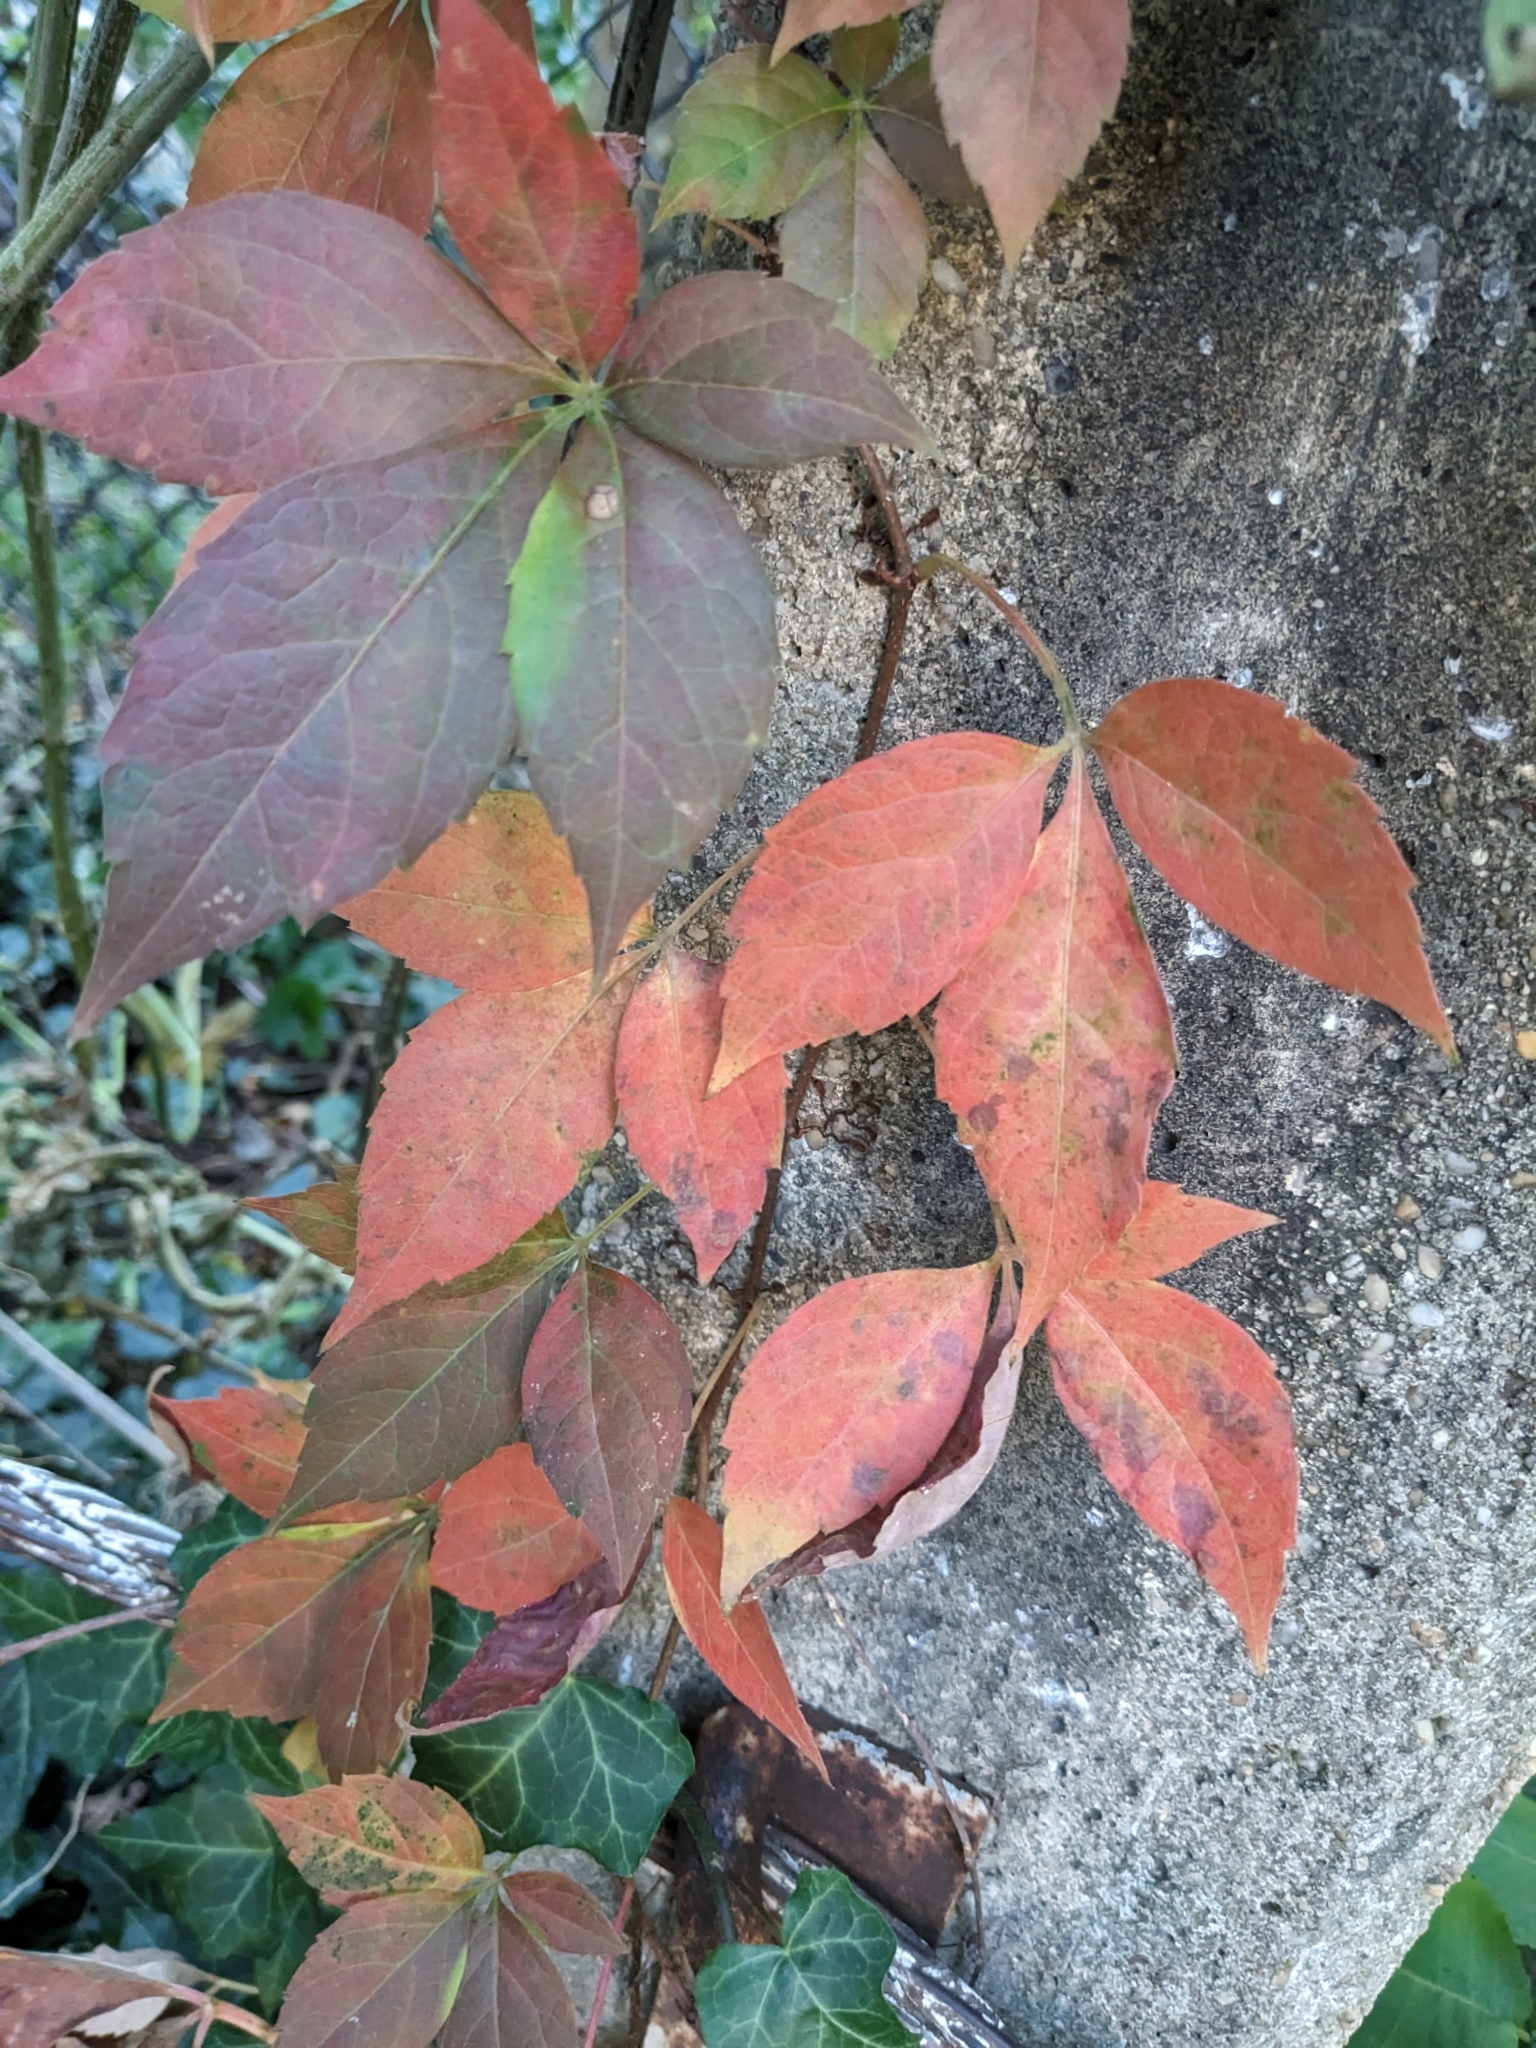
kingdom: Plantae
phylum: Tracheophyta
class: Magnoliopsida
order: Vitales
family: Vitaceae
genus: Parthenocissus
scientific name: Parthenocissus quinquefolia
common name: Virginia-creeper
